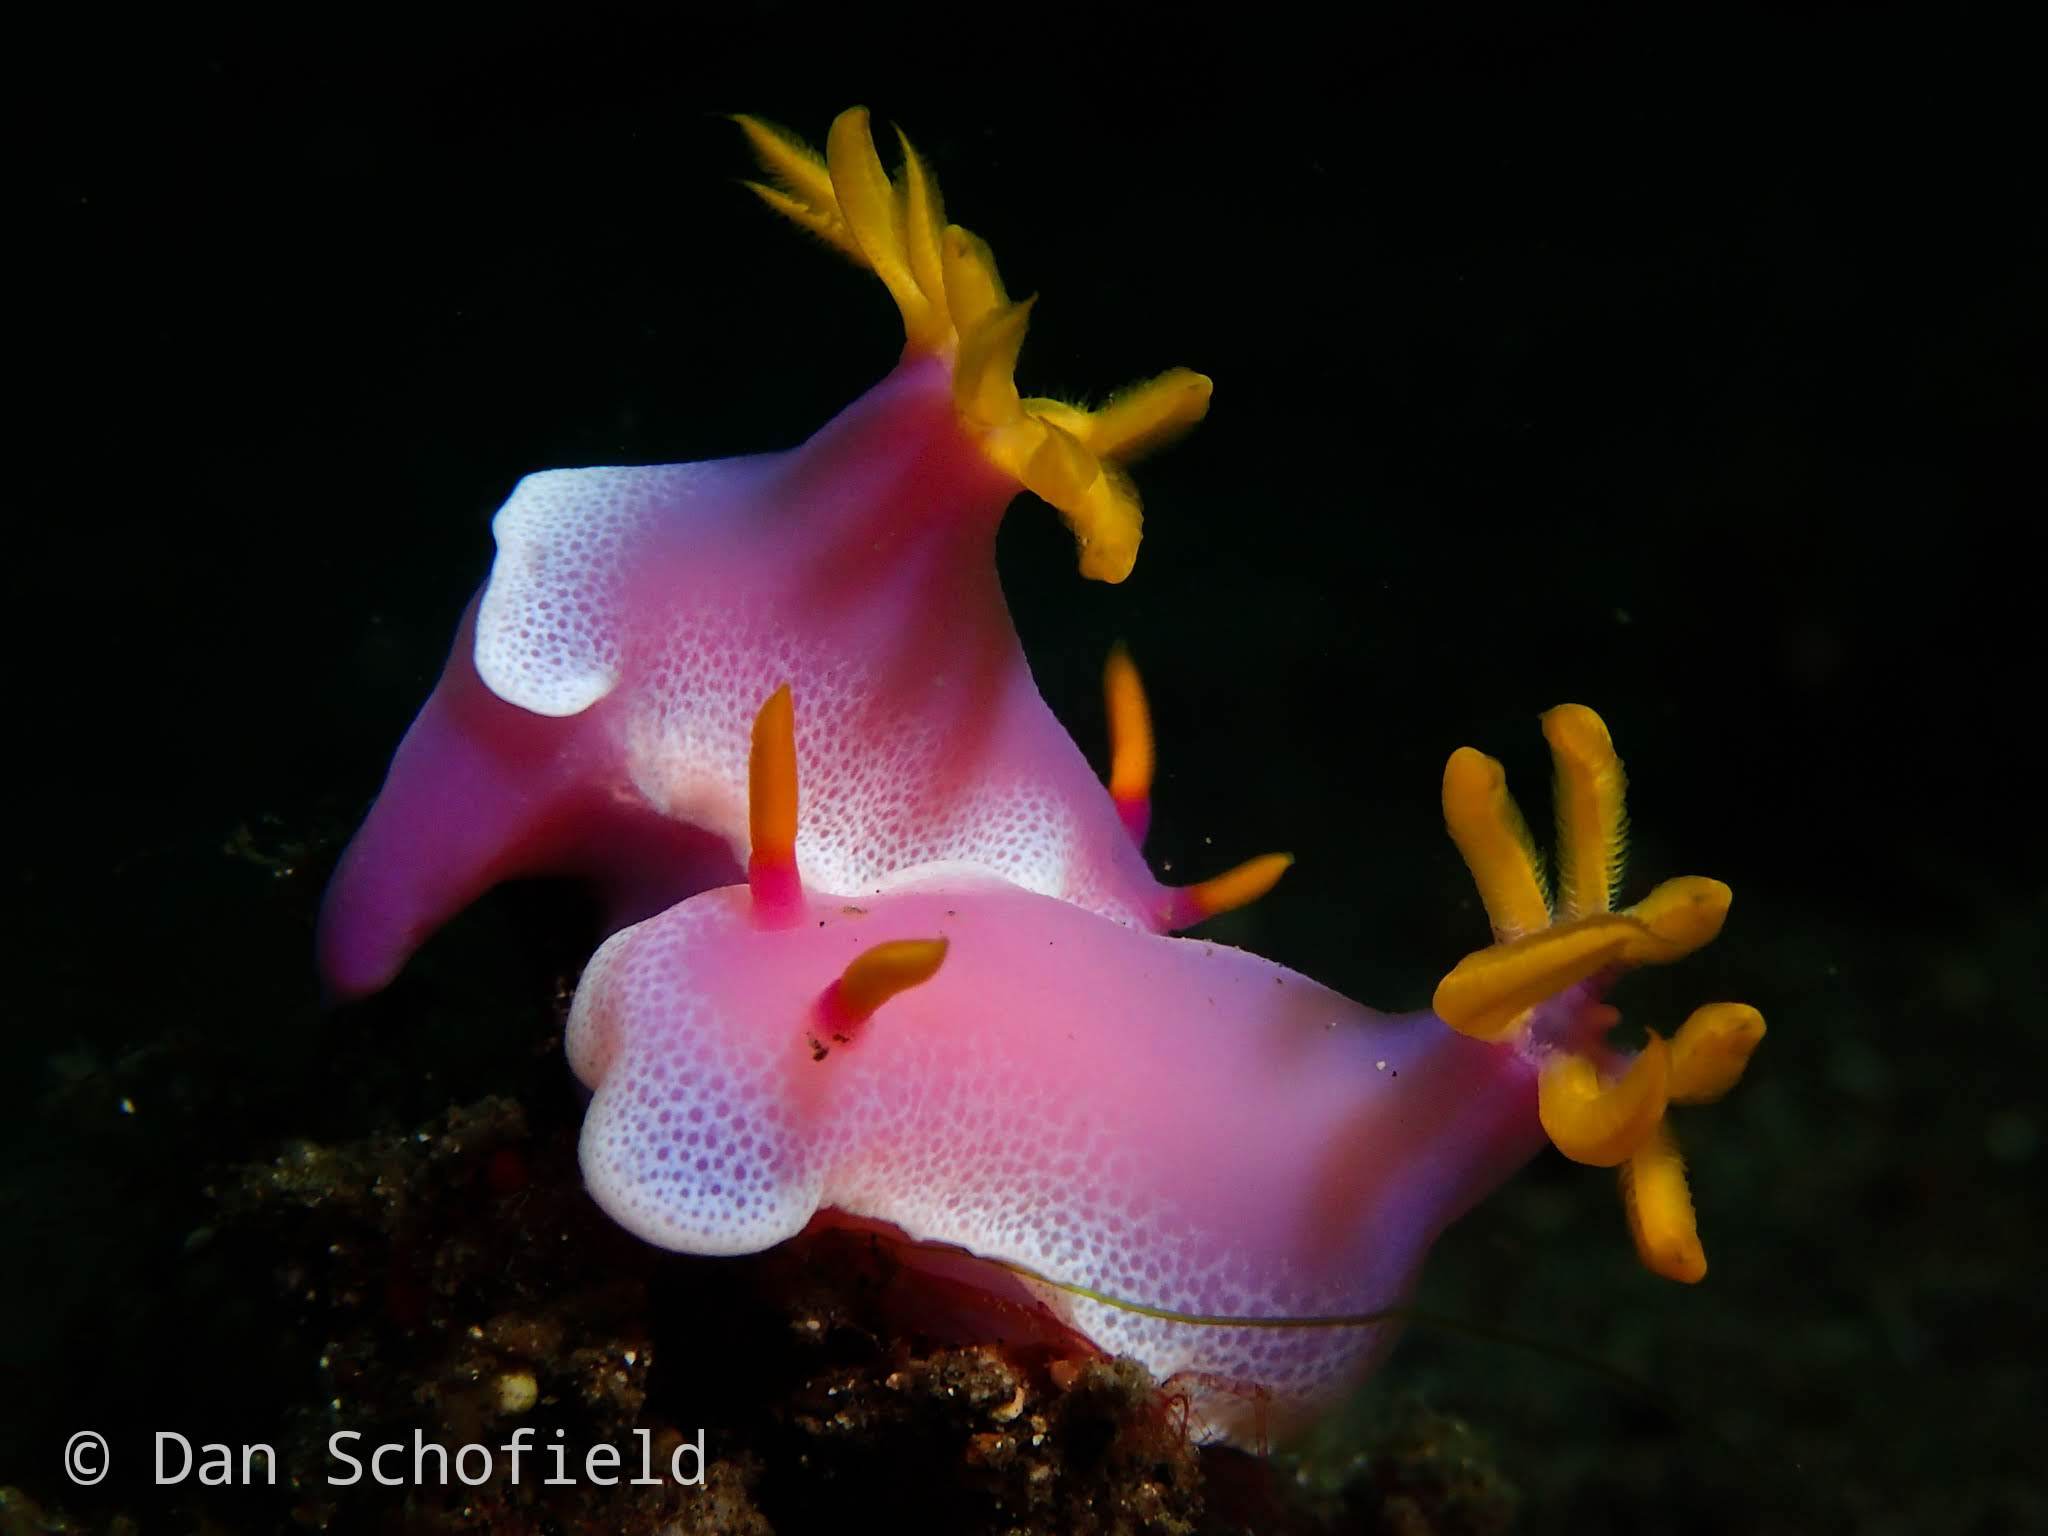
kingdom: Animalia
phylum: Mollusca
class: Gastropoda
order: Nudibranchia
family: Chromodorididae
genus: Hypselodoris
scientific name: Hypselodoris apolegma
